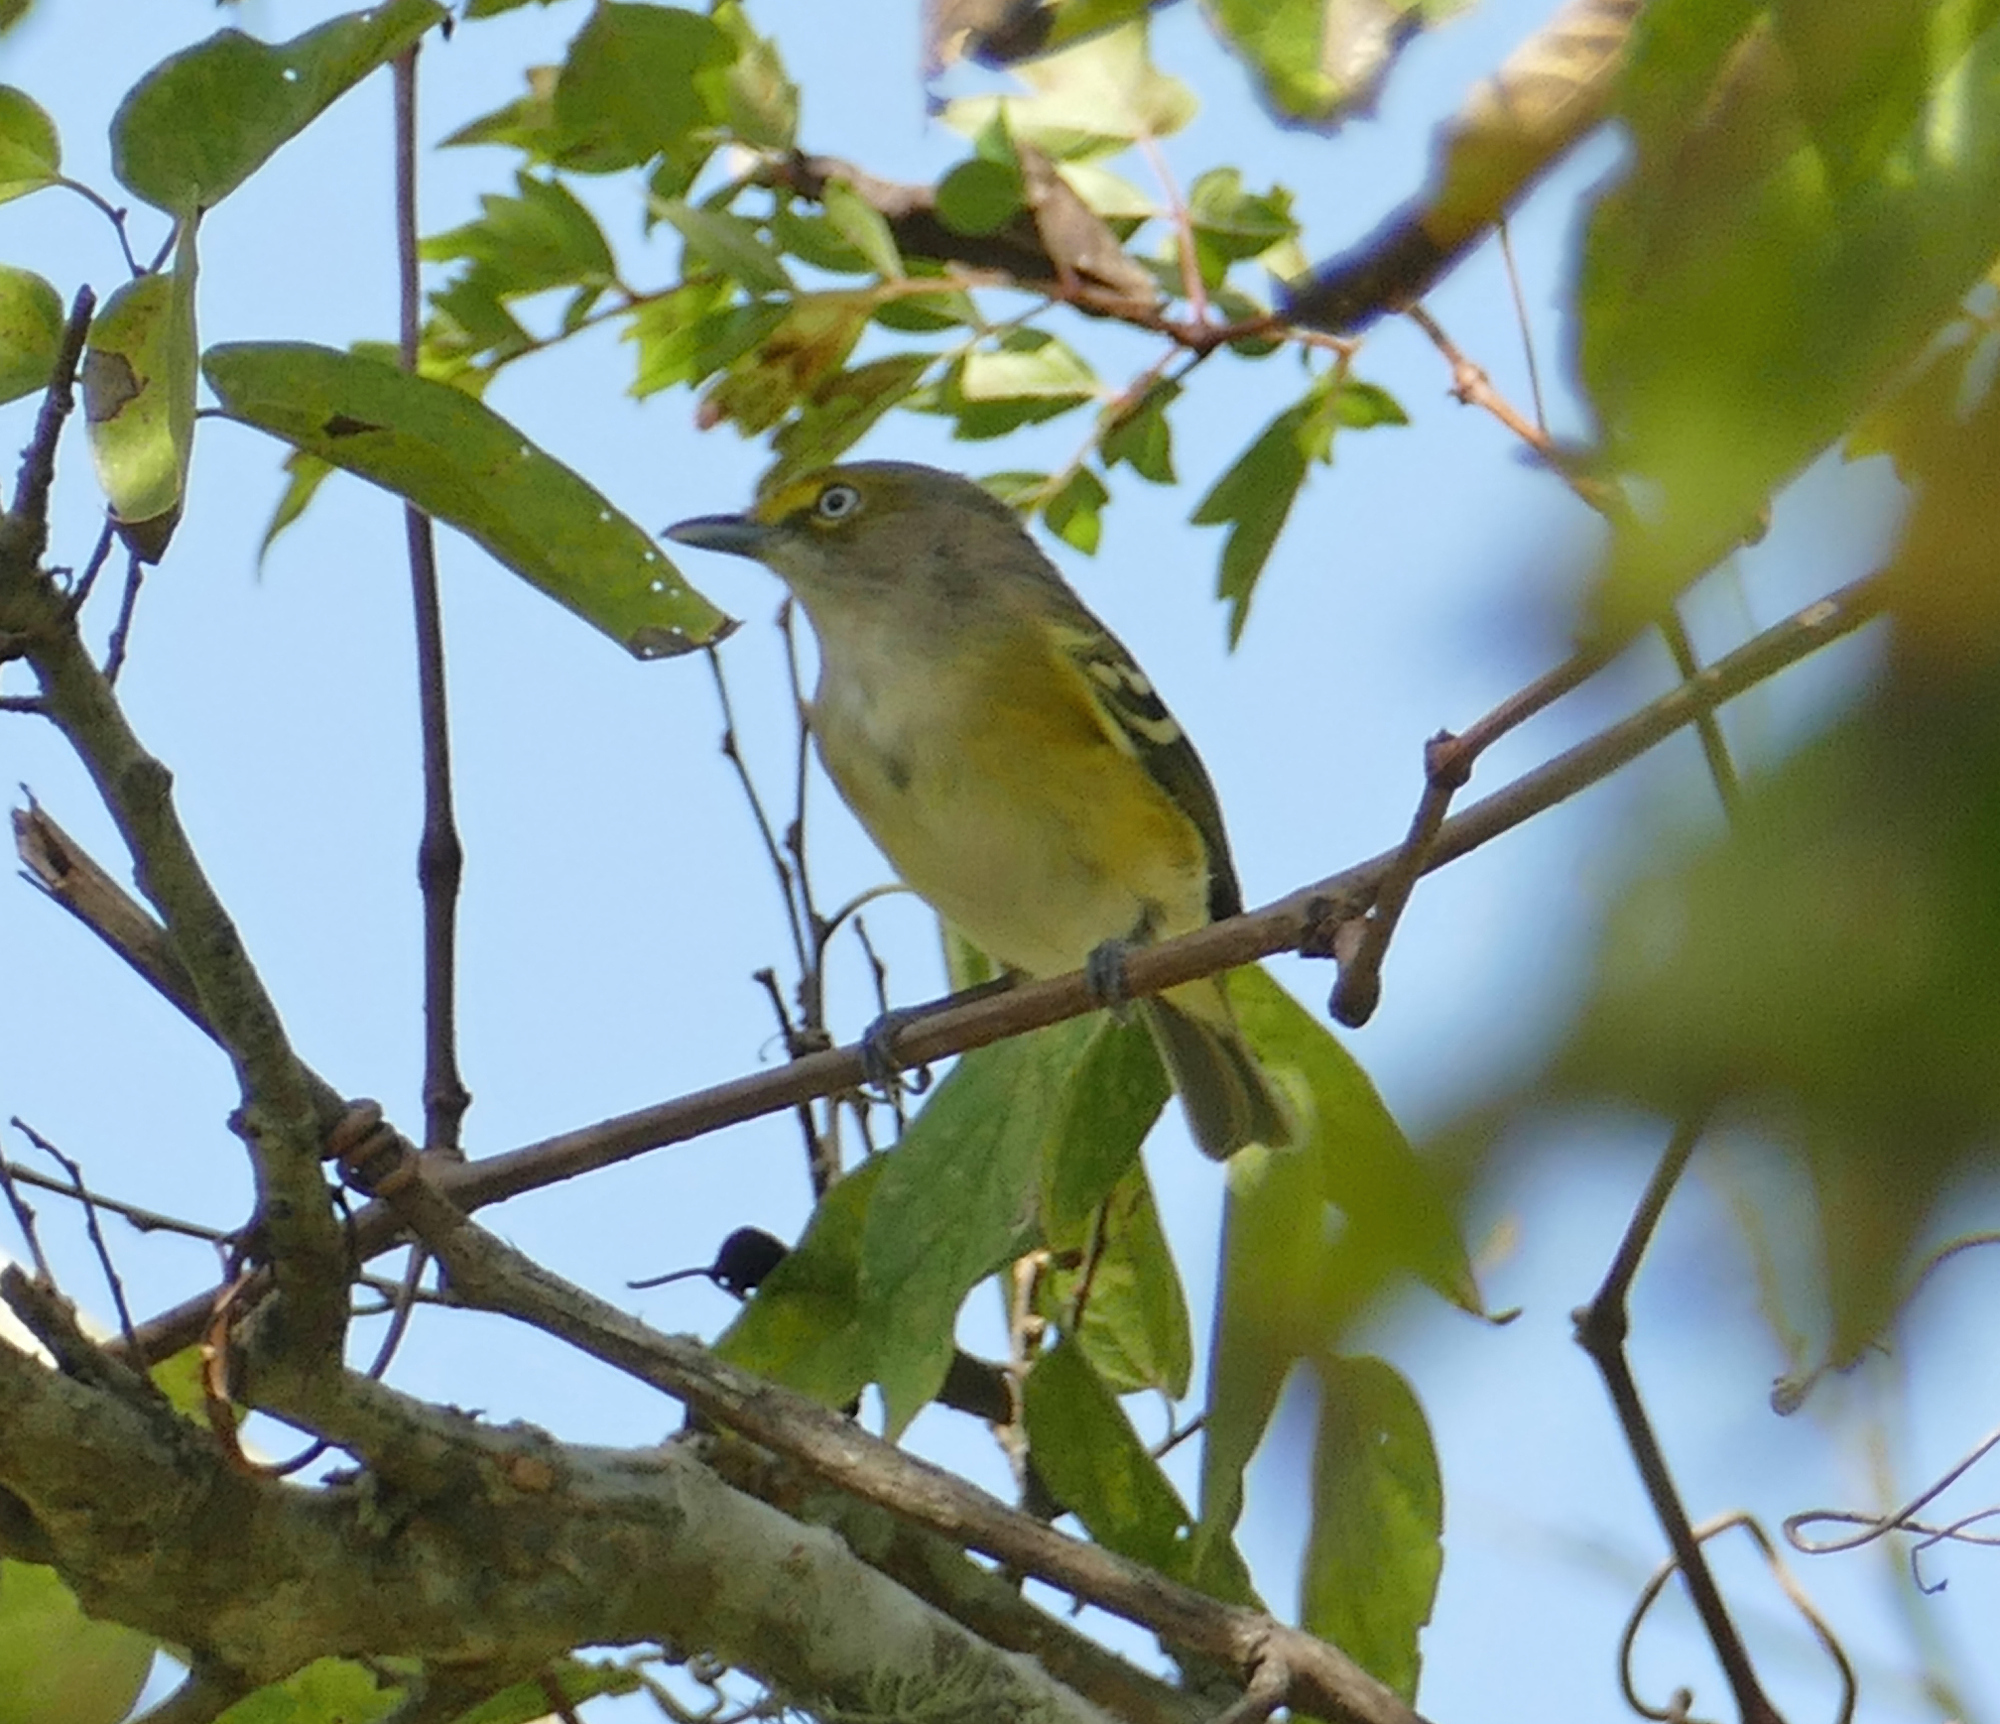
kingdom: Animalia
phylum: Chordata
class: Aves
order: Passeriformes
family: Vireonidae
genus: Vireo
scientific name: Vireo griseus
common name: White-eyed vireo
